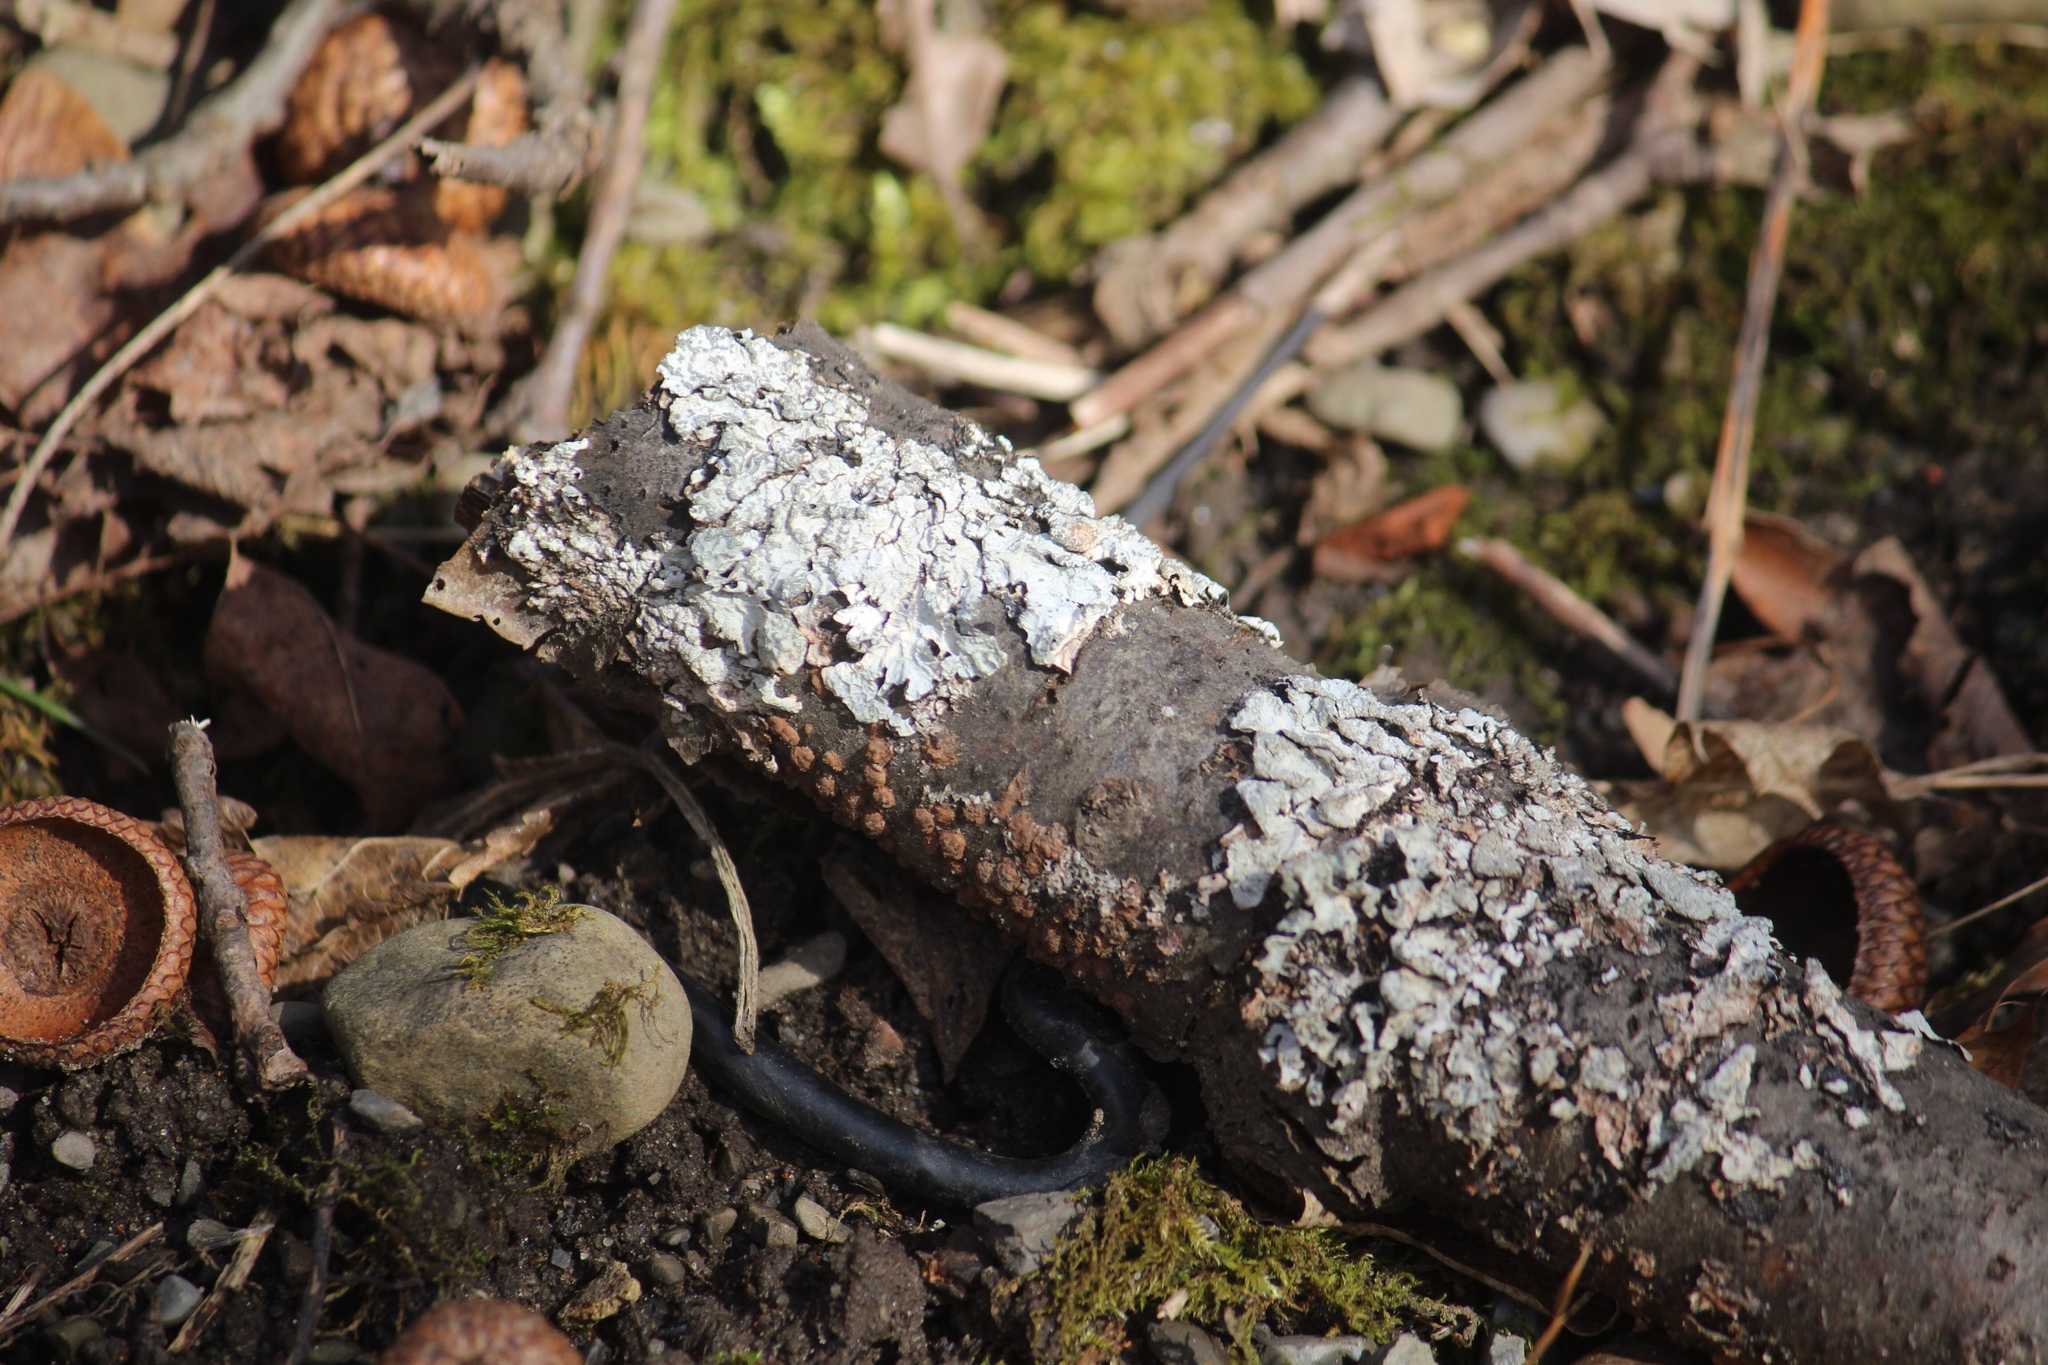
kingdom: Fungi
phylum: Ascomycota
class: Pezizomycetes
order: Pezizales
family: Sarcosomataceae
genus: Urnula
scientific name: Urnula craterium
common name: Devil's urn
